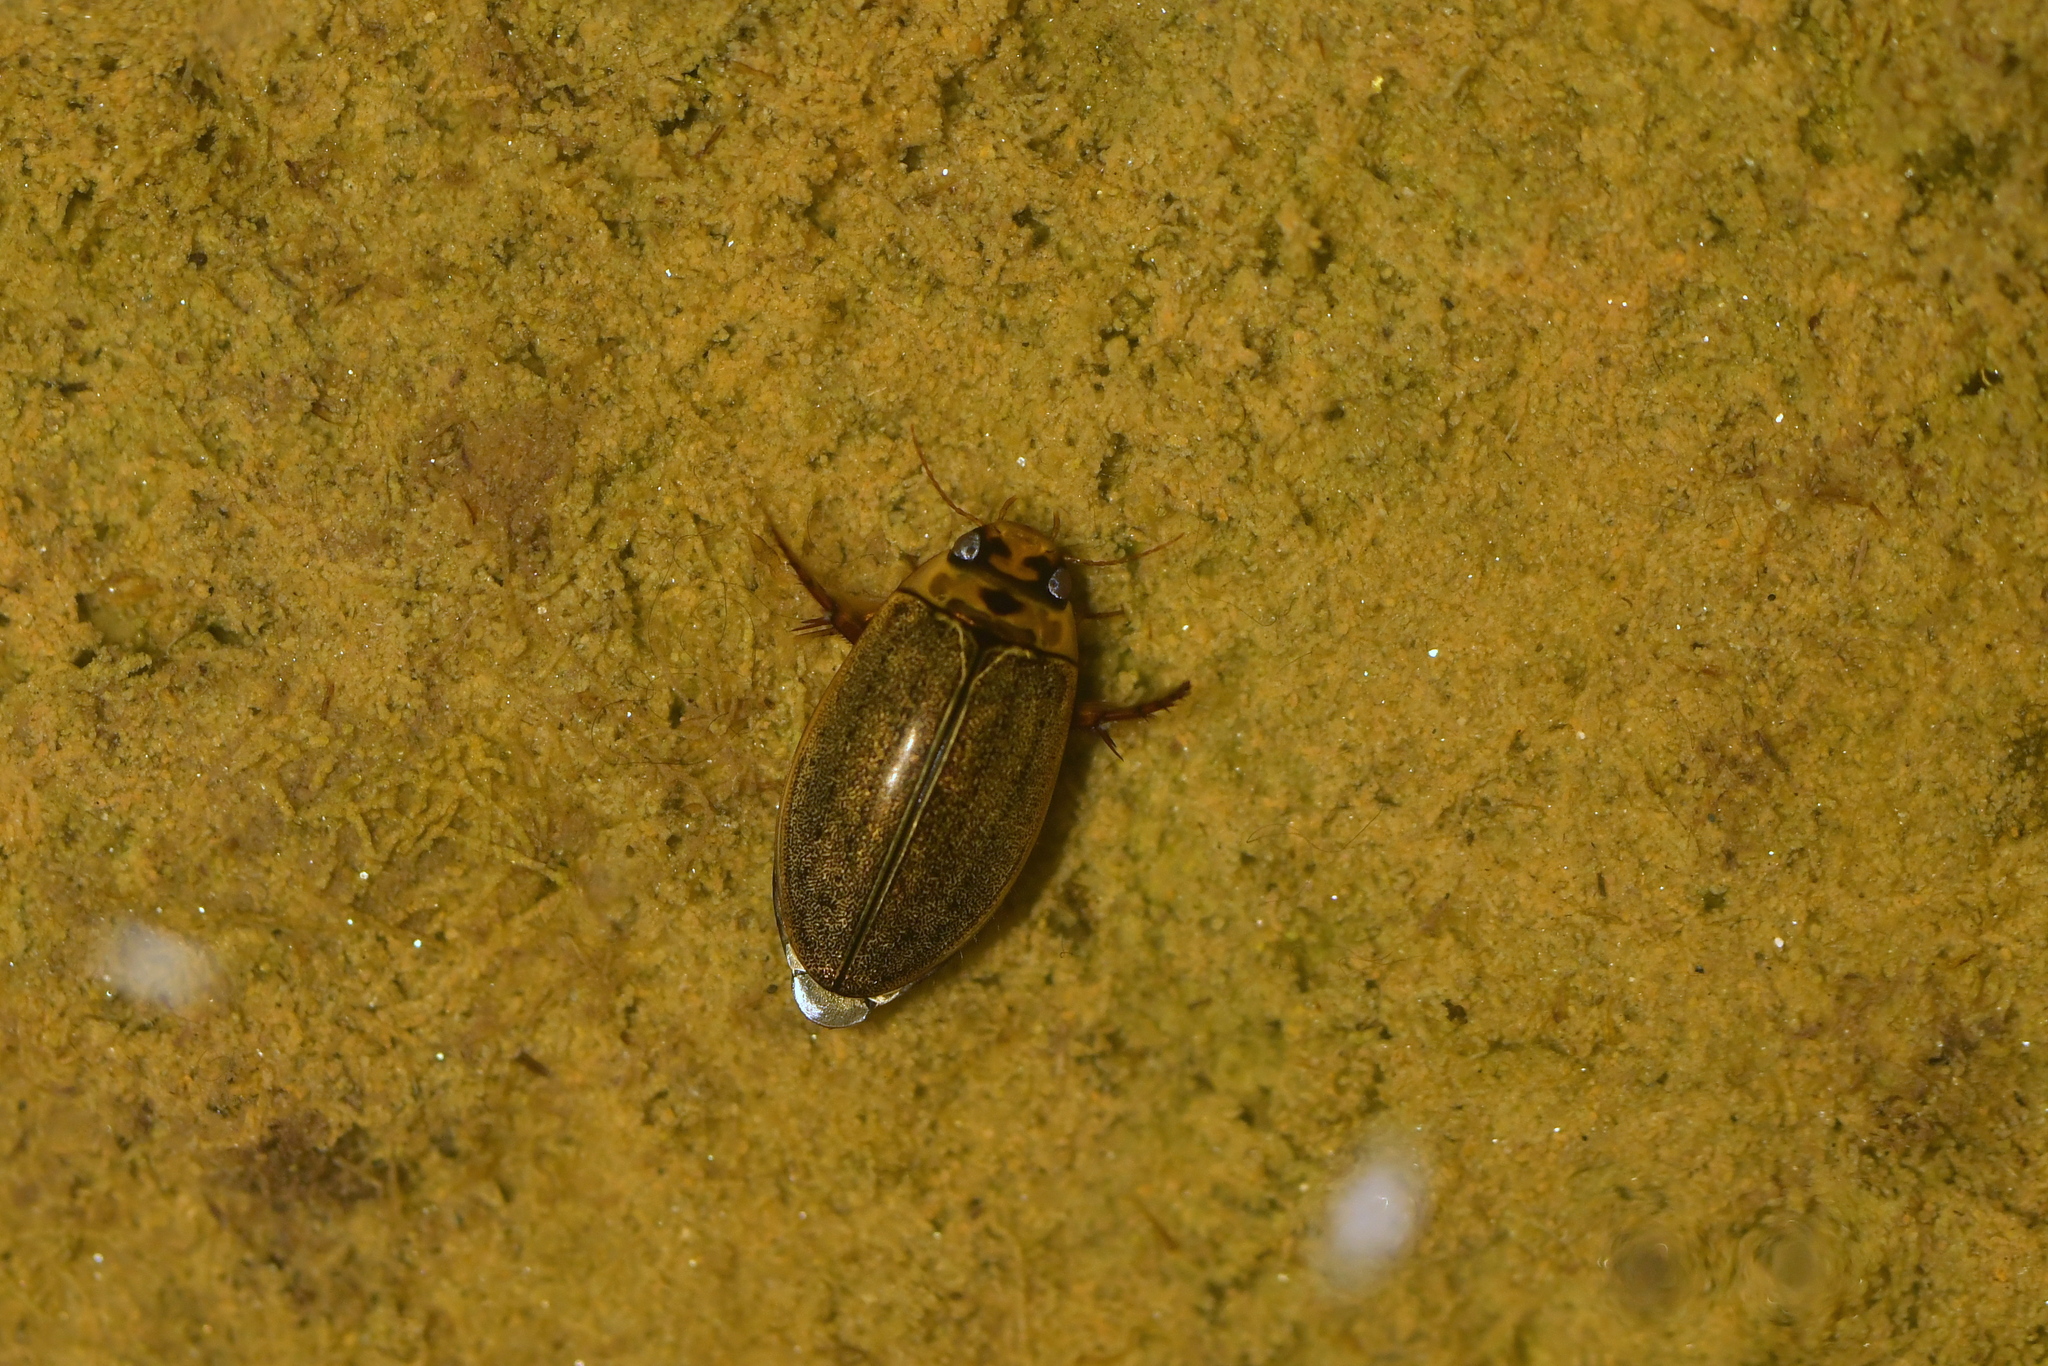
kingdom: Animalia
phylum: Arthropoda
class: Insecta
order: Coleoptera
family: Dytiscidae
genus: Rhantus
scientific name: Rhantus suturalis
